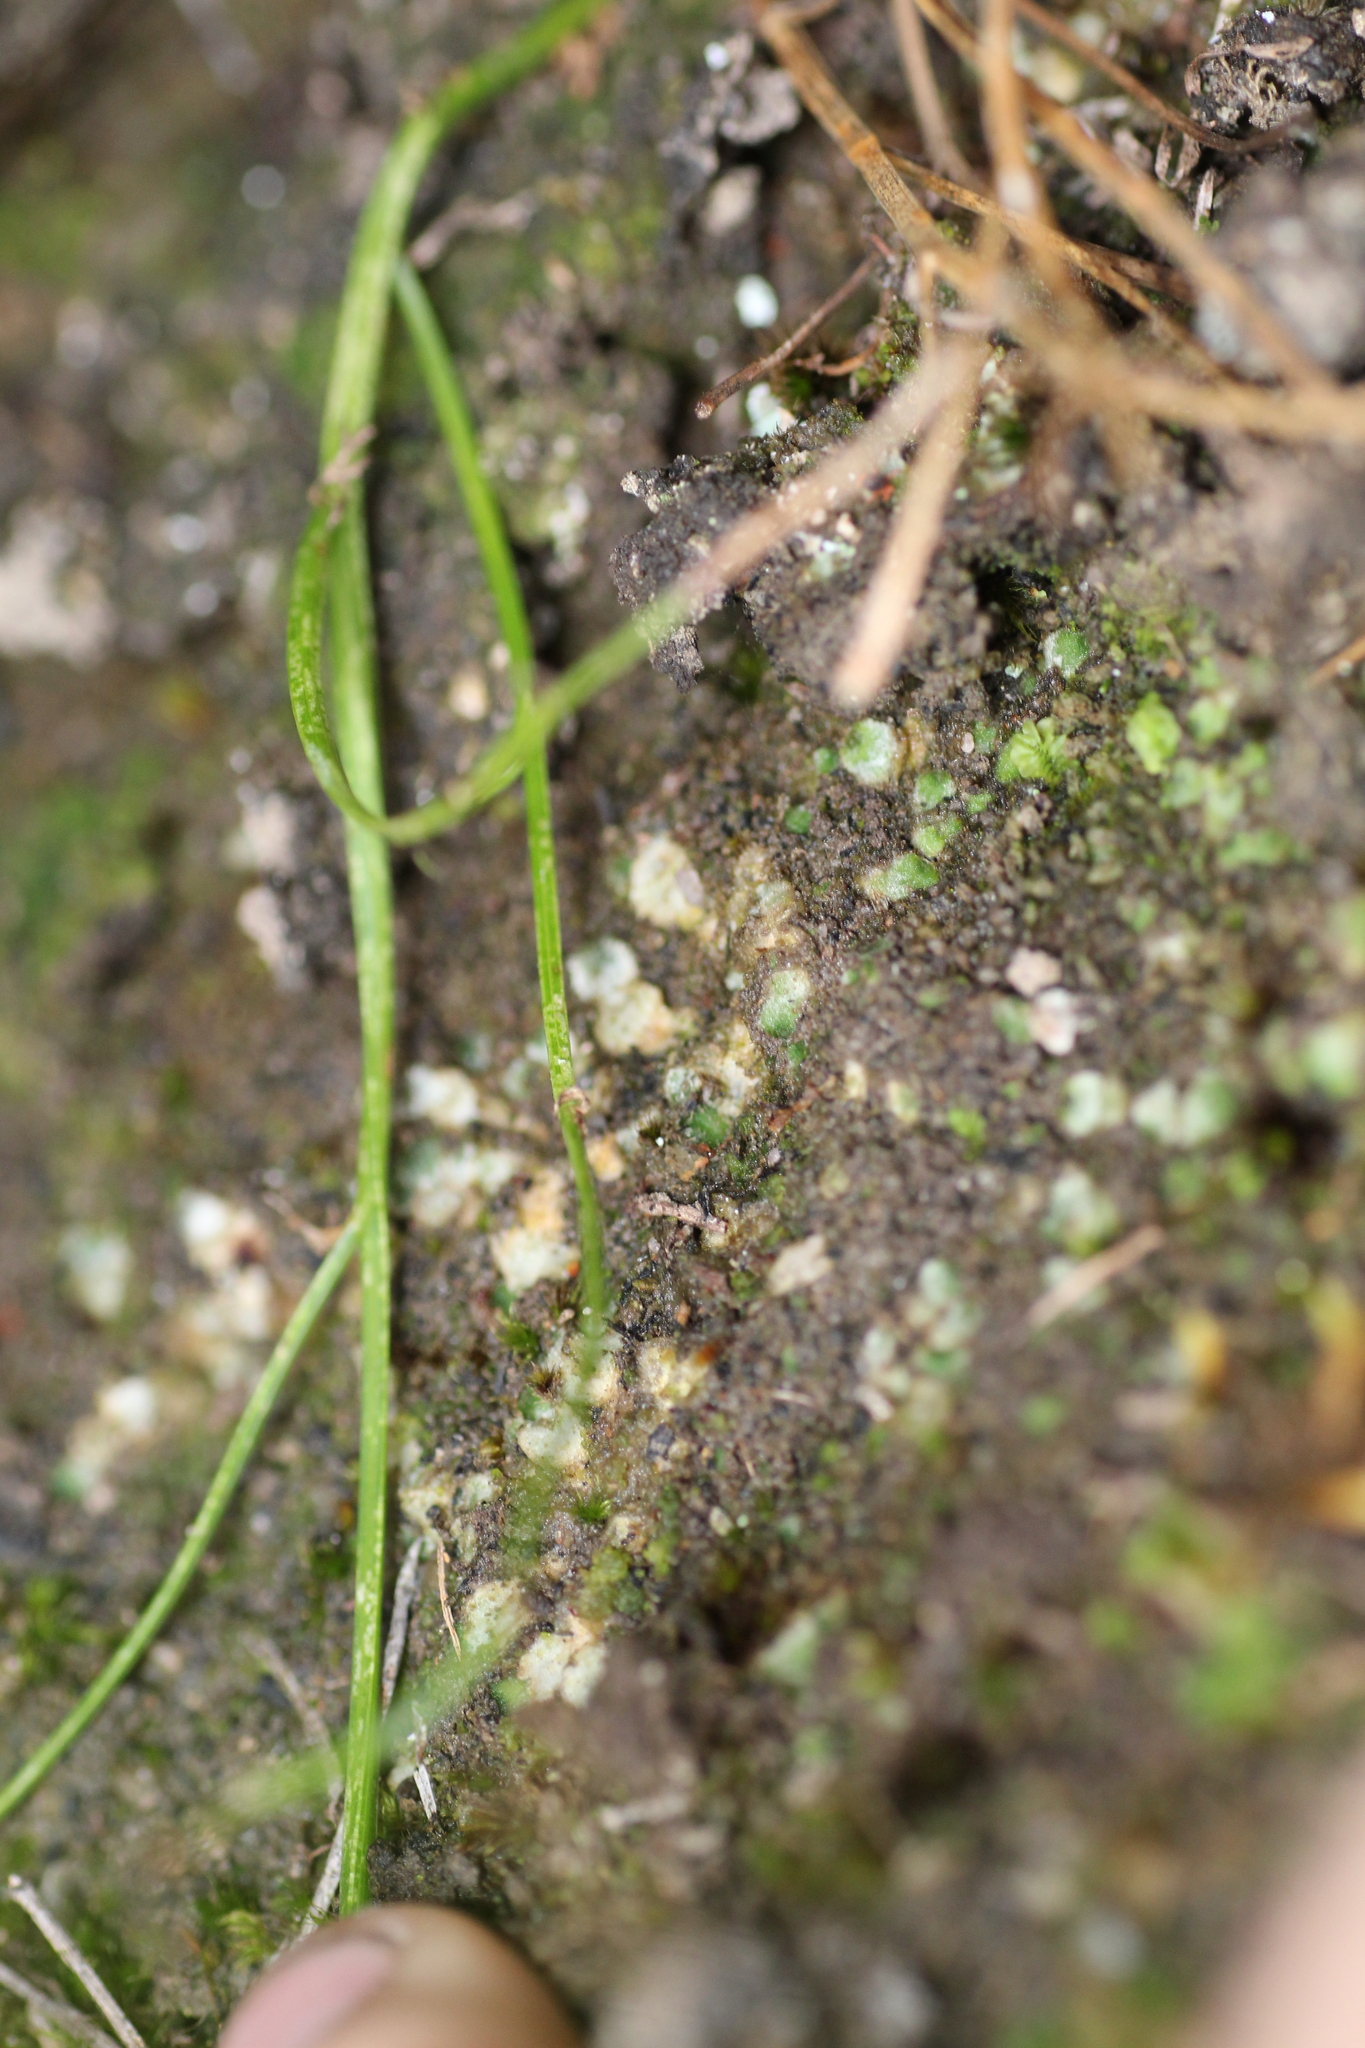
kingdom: Plantae
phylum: Marchantiophyta
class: Jungermanniopsida
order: Jungermanniales
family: Acrobolbaceae
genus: Enigmella
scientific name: Enigmella thallina
